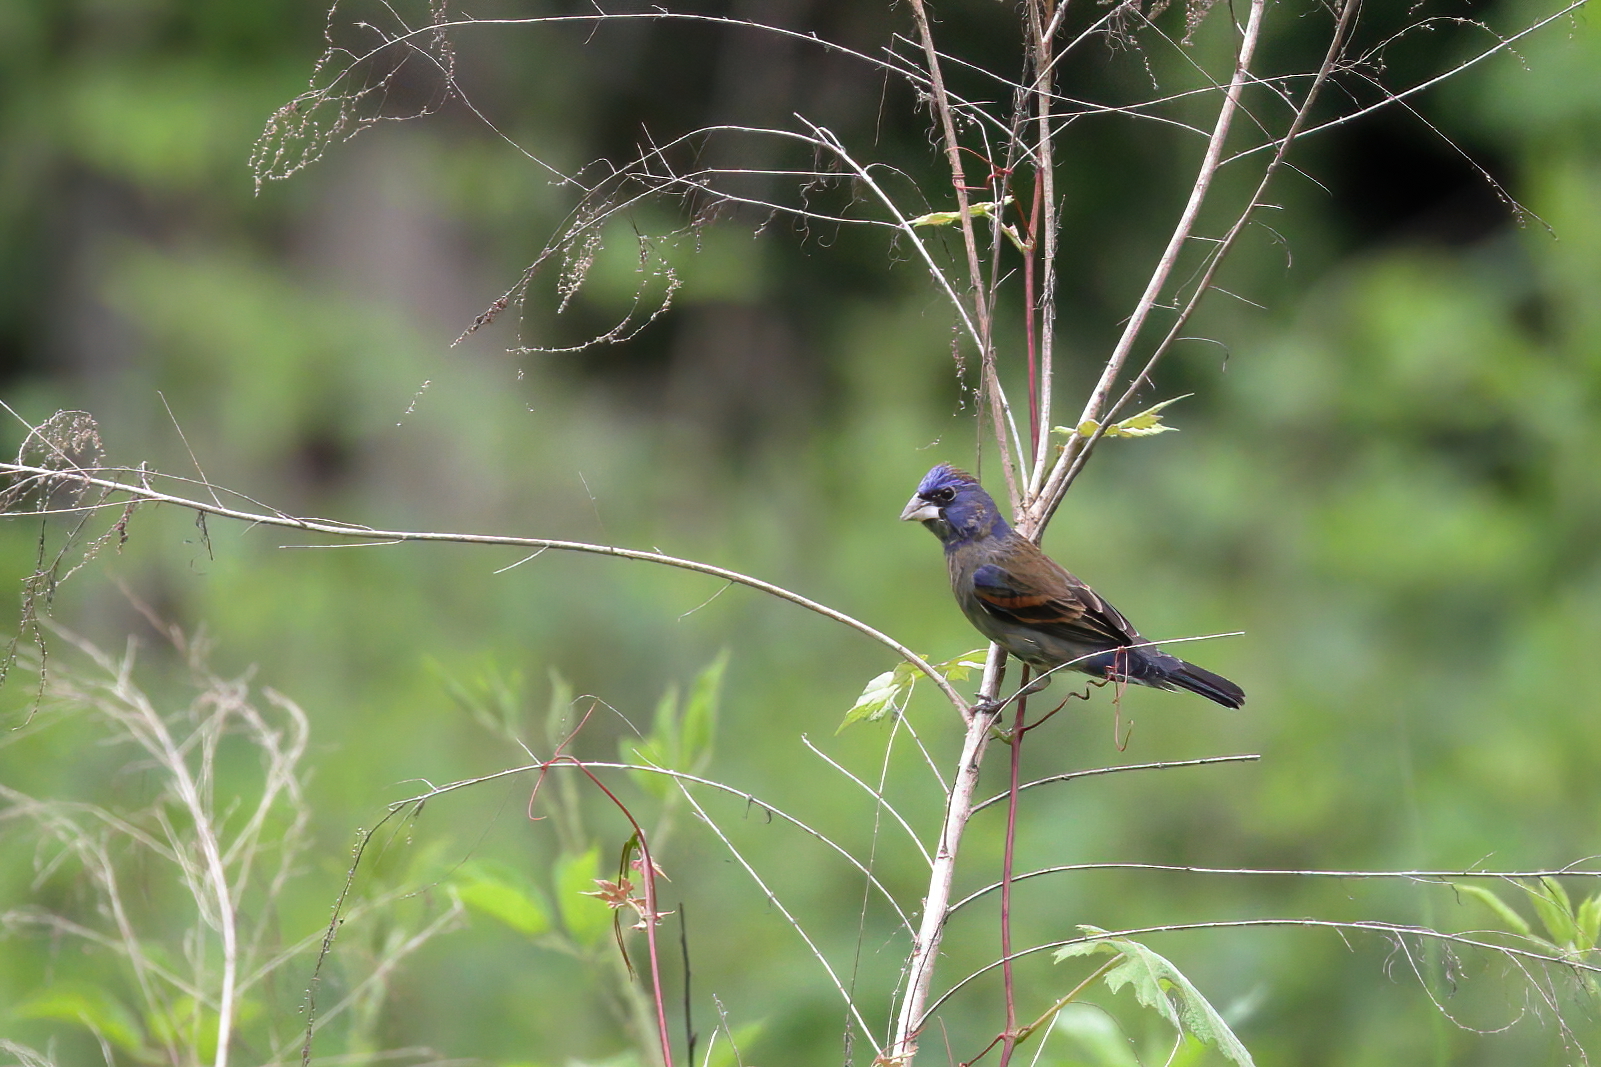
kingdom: Animalia
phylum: Chordata
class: Aves
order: Passeriformes
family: Cardinalidae
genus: Passerina
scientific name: Passerina caerulea
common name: Blue grosbeak
